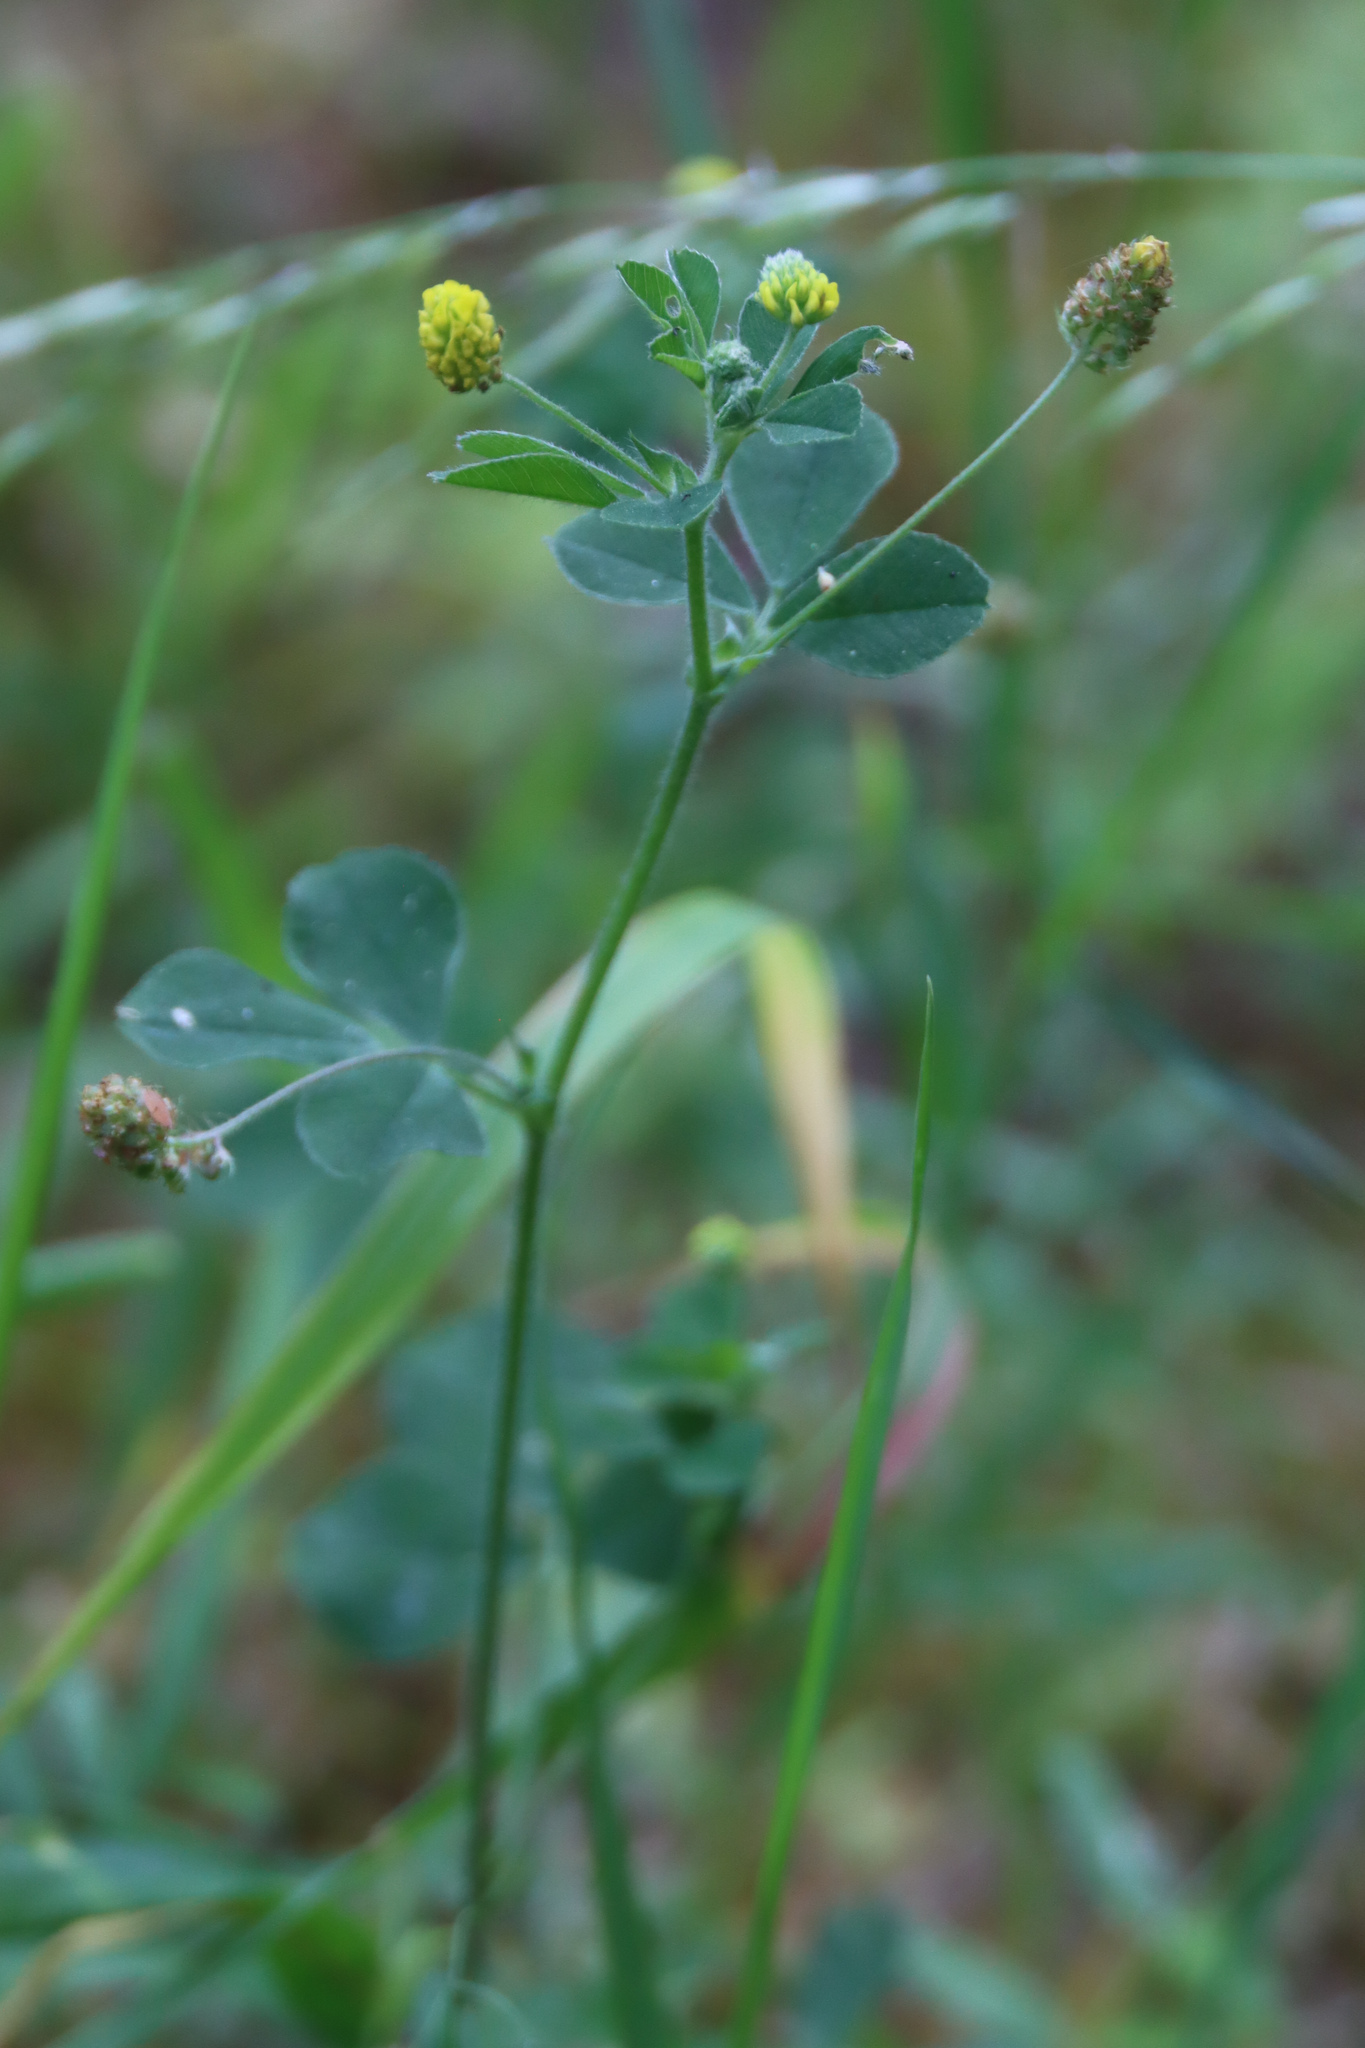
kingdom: Plantae
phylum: Tracheophyta
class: Magnoliopsida
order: Fabales
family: Fabaceae
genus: Medicago
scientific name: Medicago lupulina
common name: Black medick
